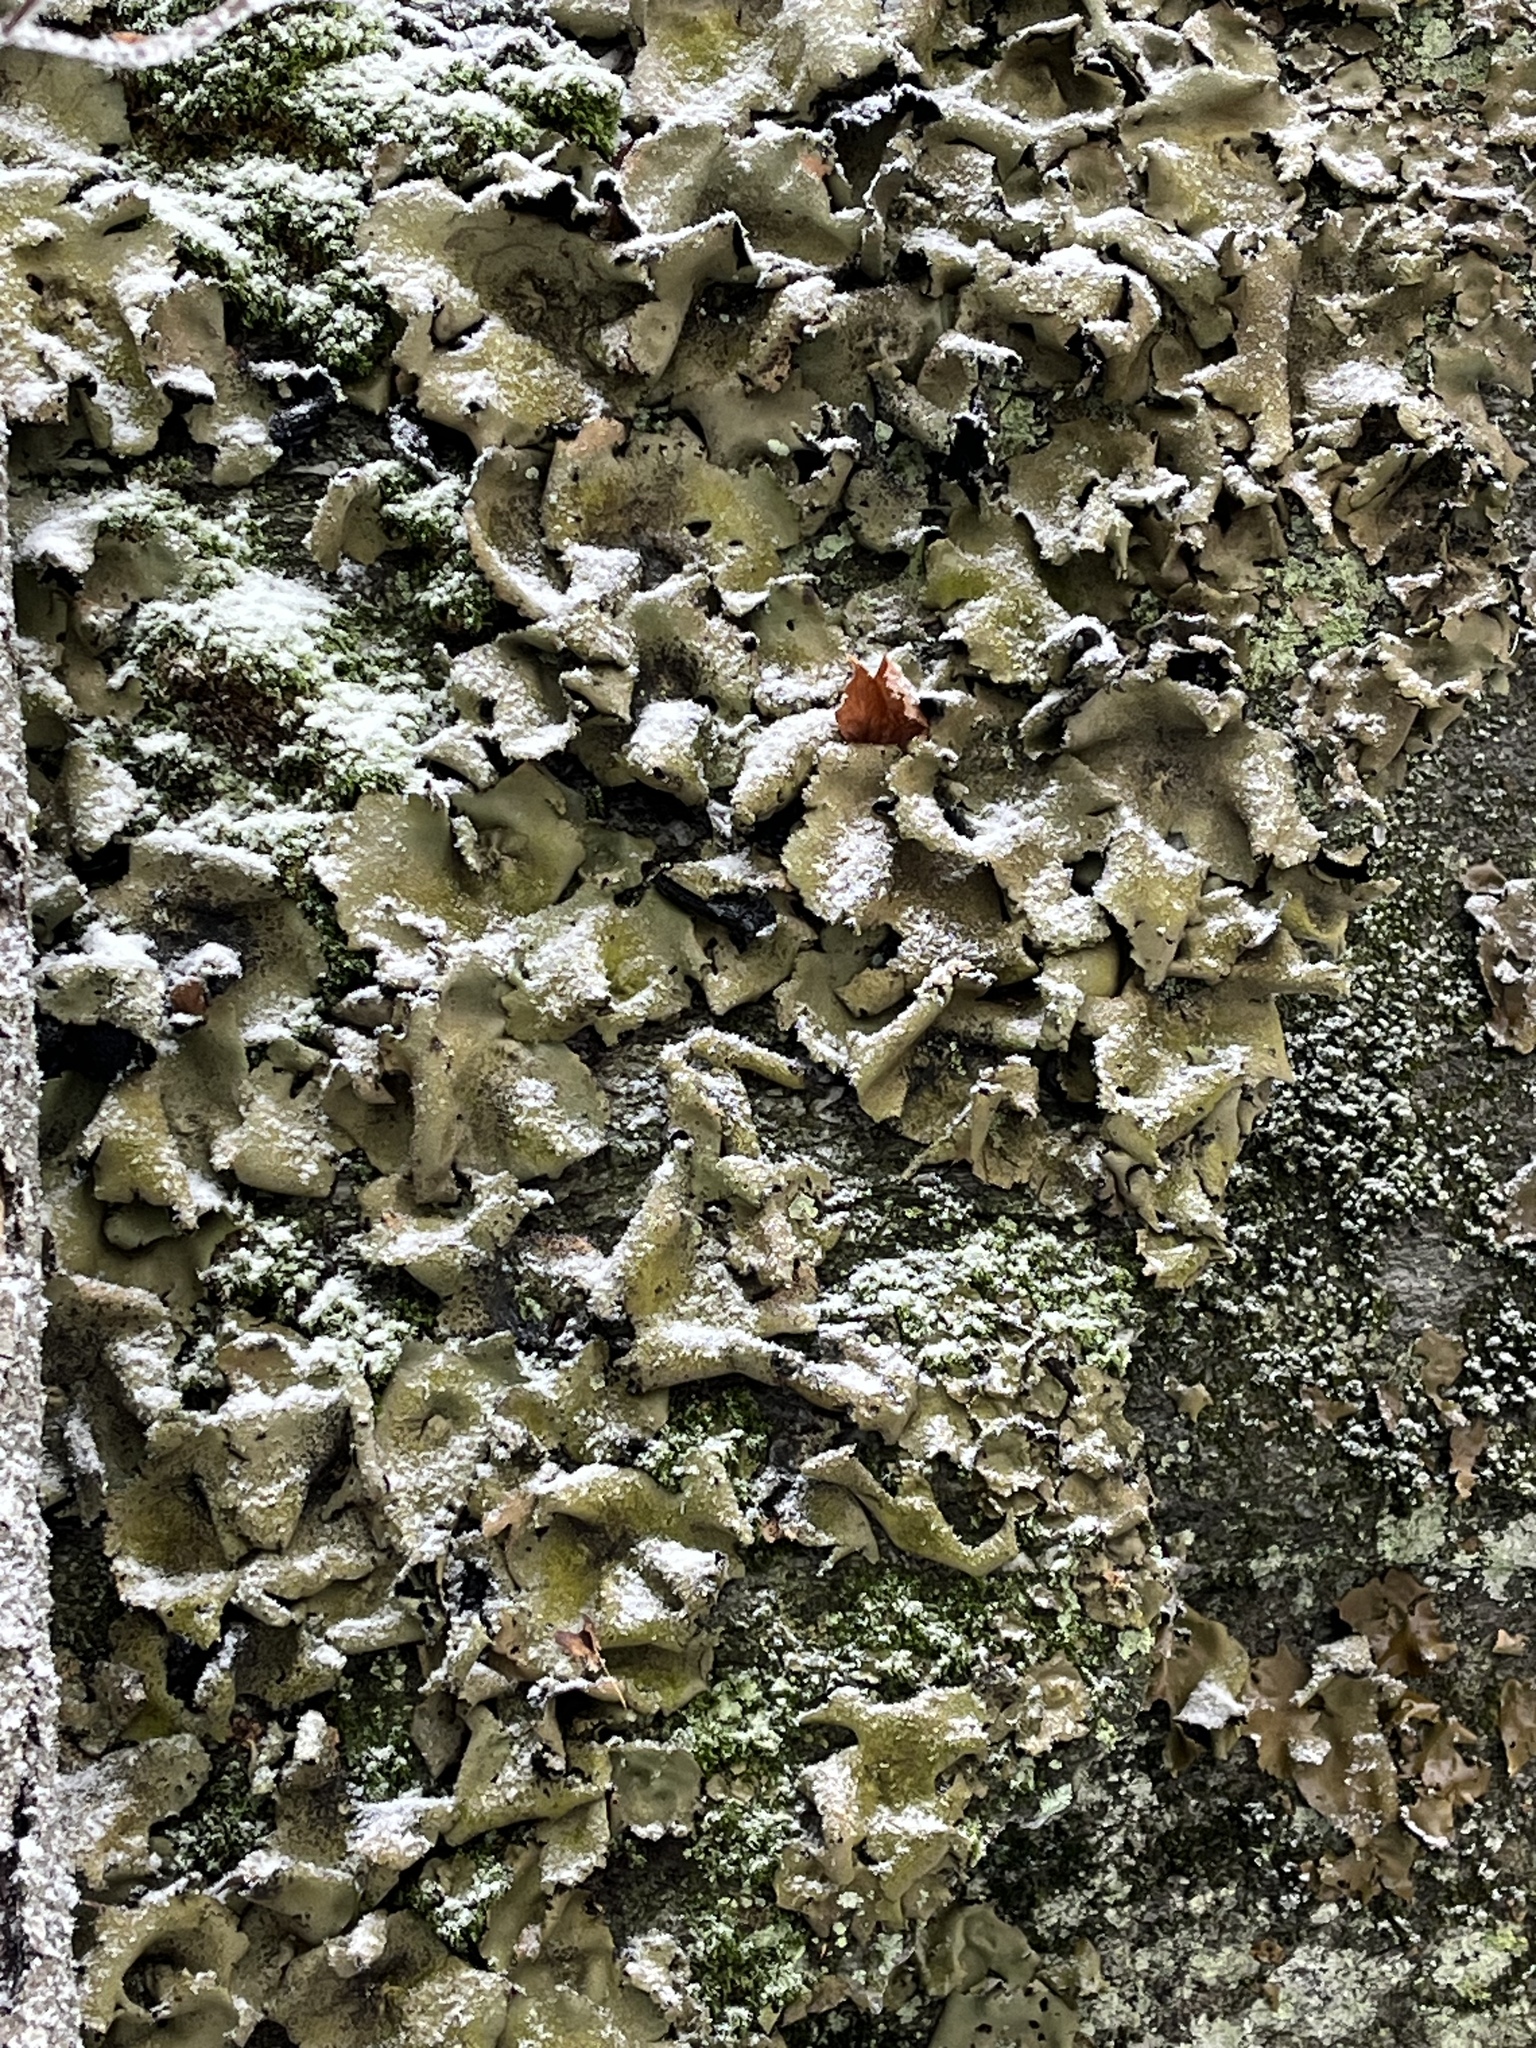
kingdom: Fungi
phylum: Ascomycota
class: Lecanoromycetes
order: Umbilicariales
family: Umbilicariaceae
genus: Umbilicaria
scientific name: Umbilicaria mammulata
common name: Smooth rock tripe
